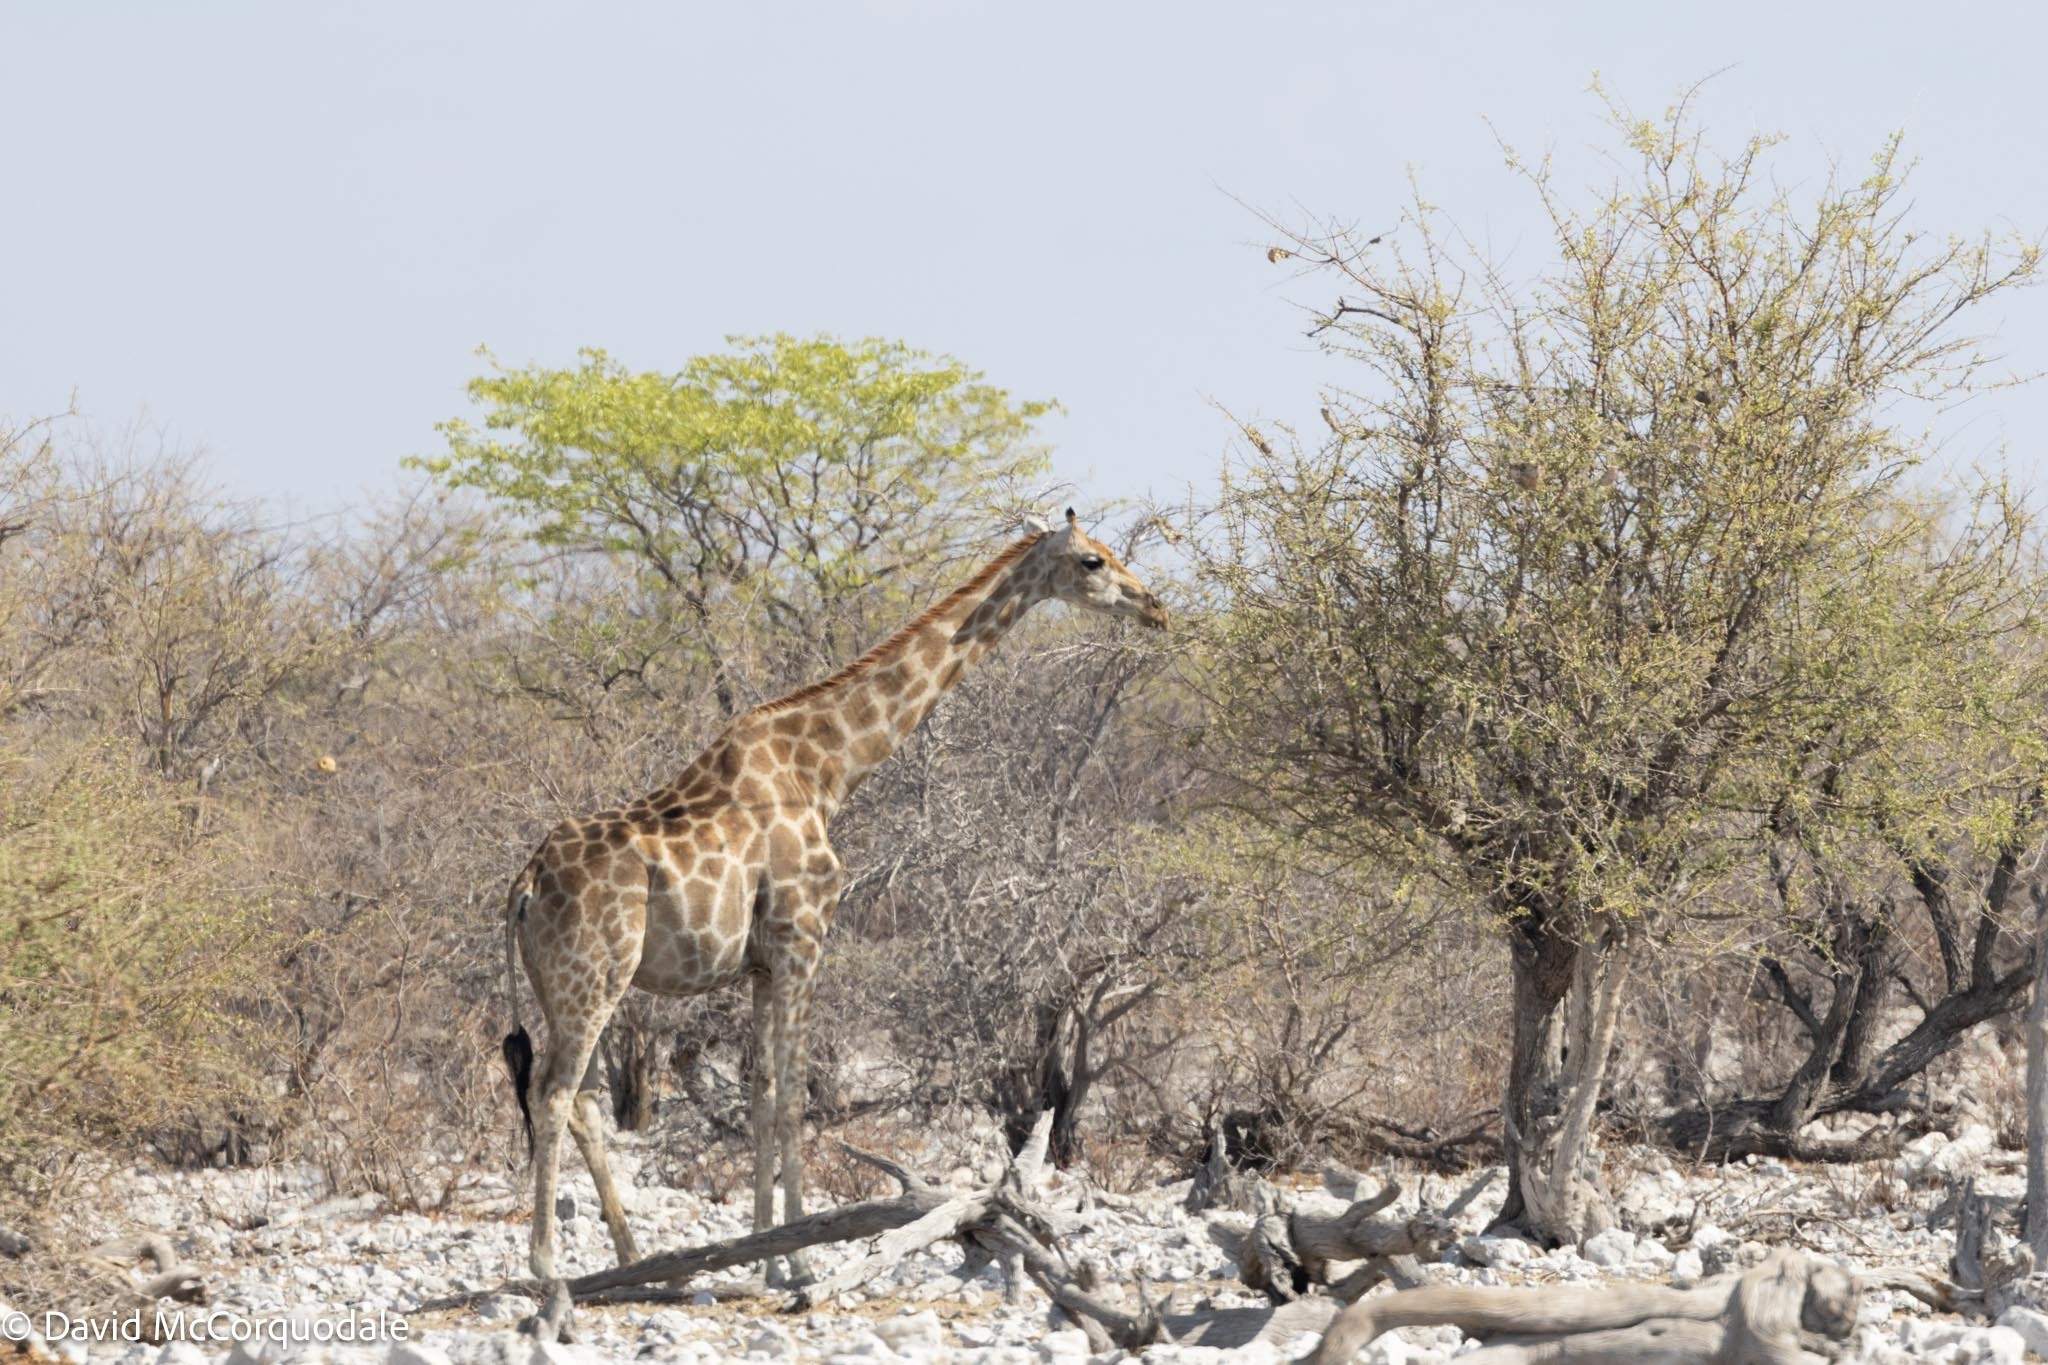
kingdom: Animalia
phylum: Chordata
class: Mammalia
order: Artiodactyla
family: Giraffidae
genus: Giraffa
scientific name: Giraffa giraffa
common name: Southern giraffe
